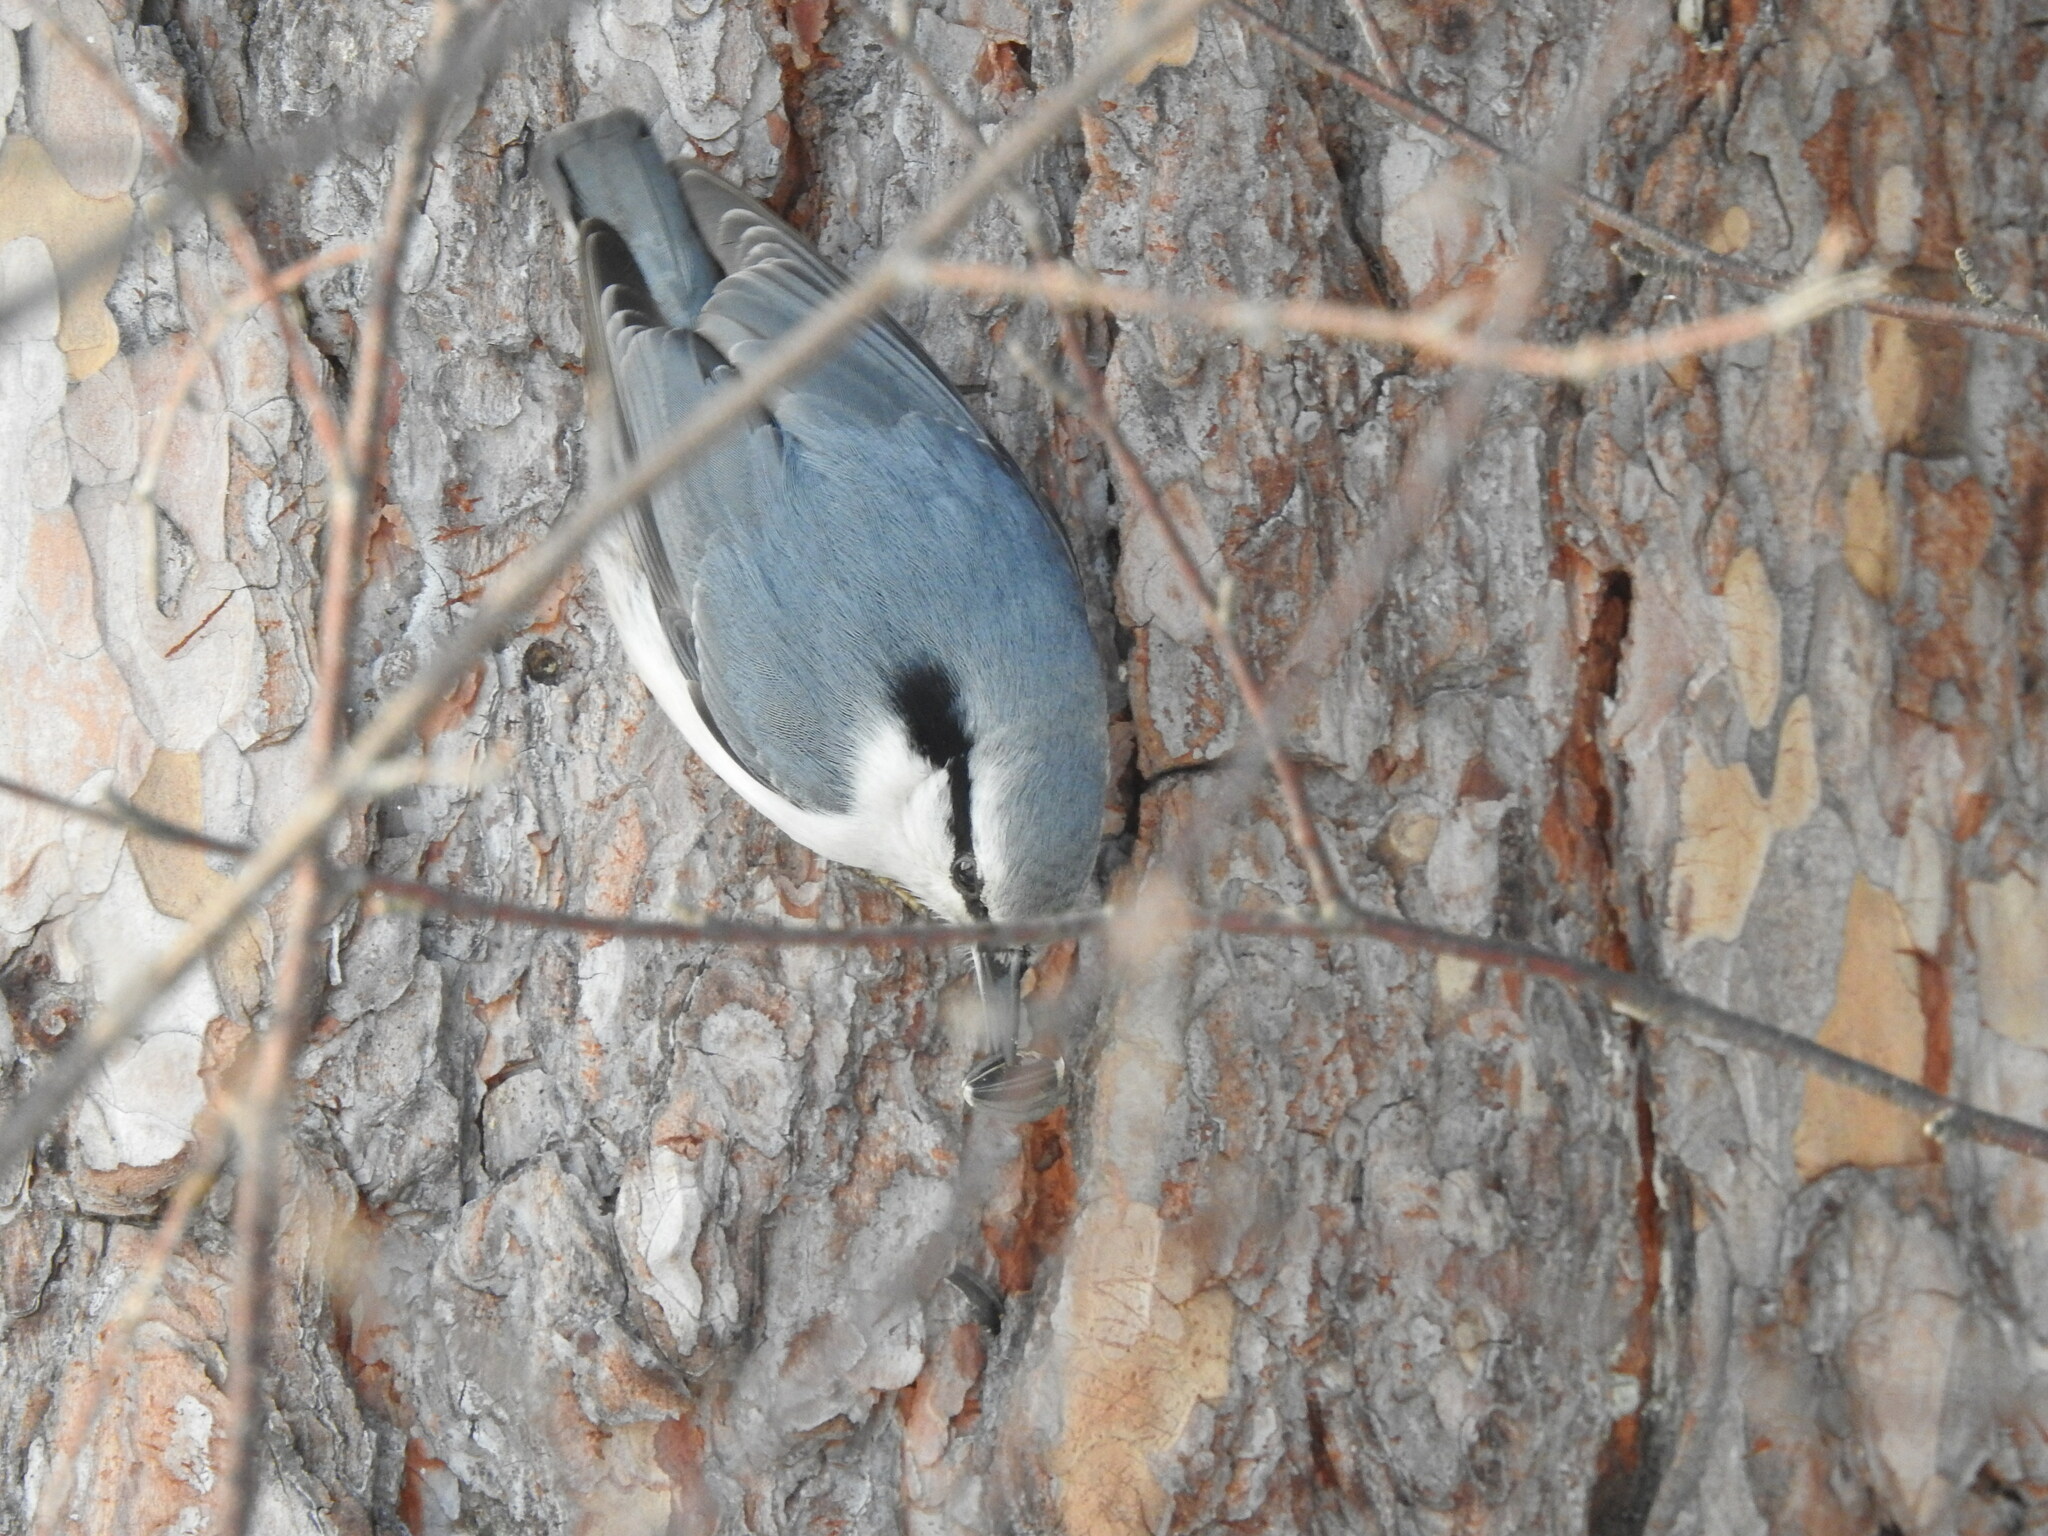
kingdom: Animalia
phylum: Chordata
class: Aves
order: Passeriformes
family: Sittidae
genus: Sitta
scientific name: Sitta europaea
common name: Eurasian nuthatch
